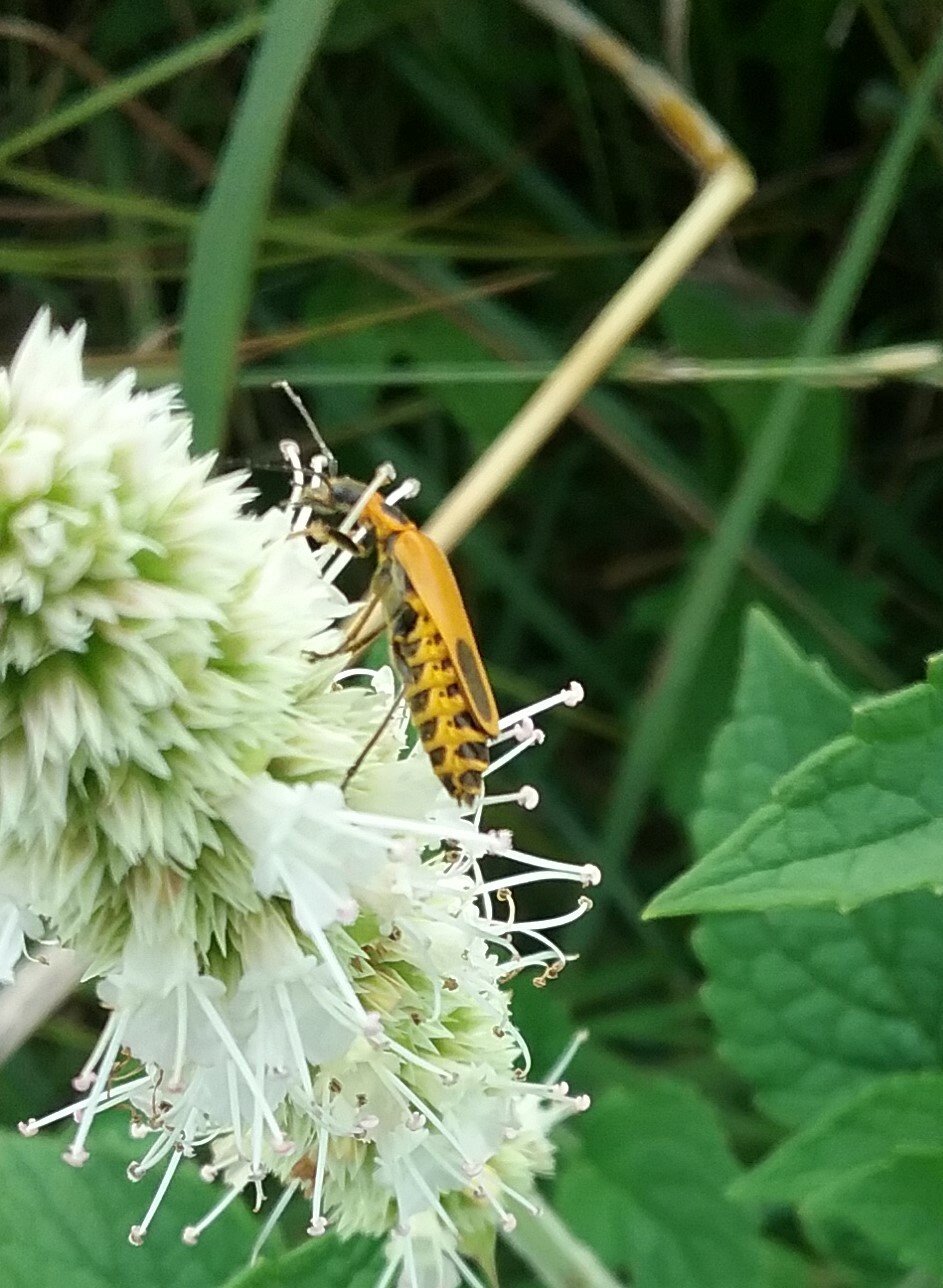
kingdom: Animalia
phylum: Arthropoda
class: Insecta
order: Coleoptera
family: Cantharidae
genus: Chauliognathus
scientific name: Chauliognathus pensylvanicus
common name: Goldenrod soldier beetle
